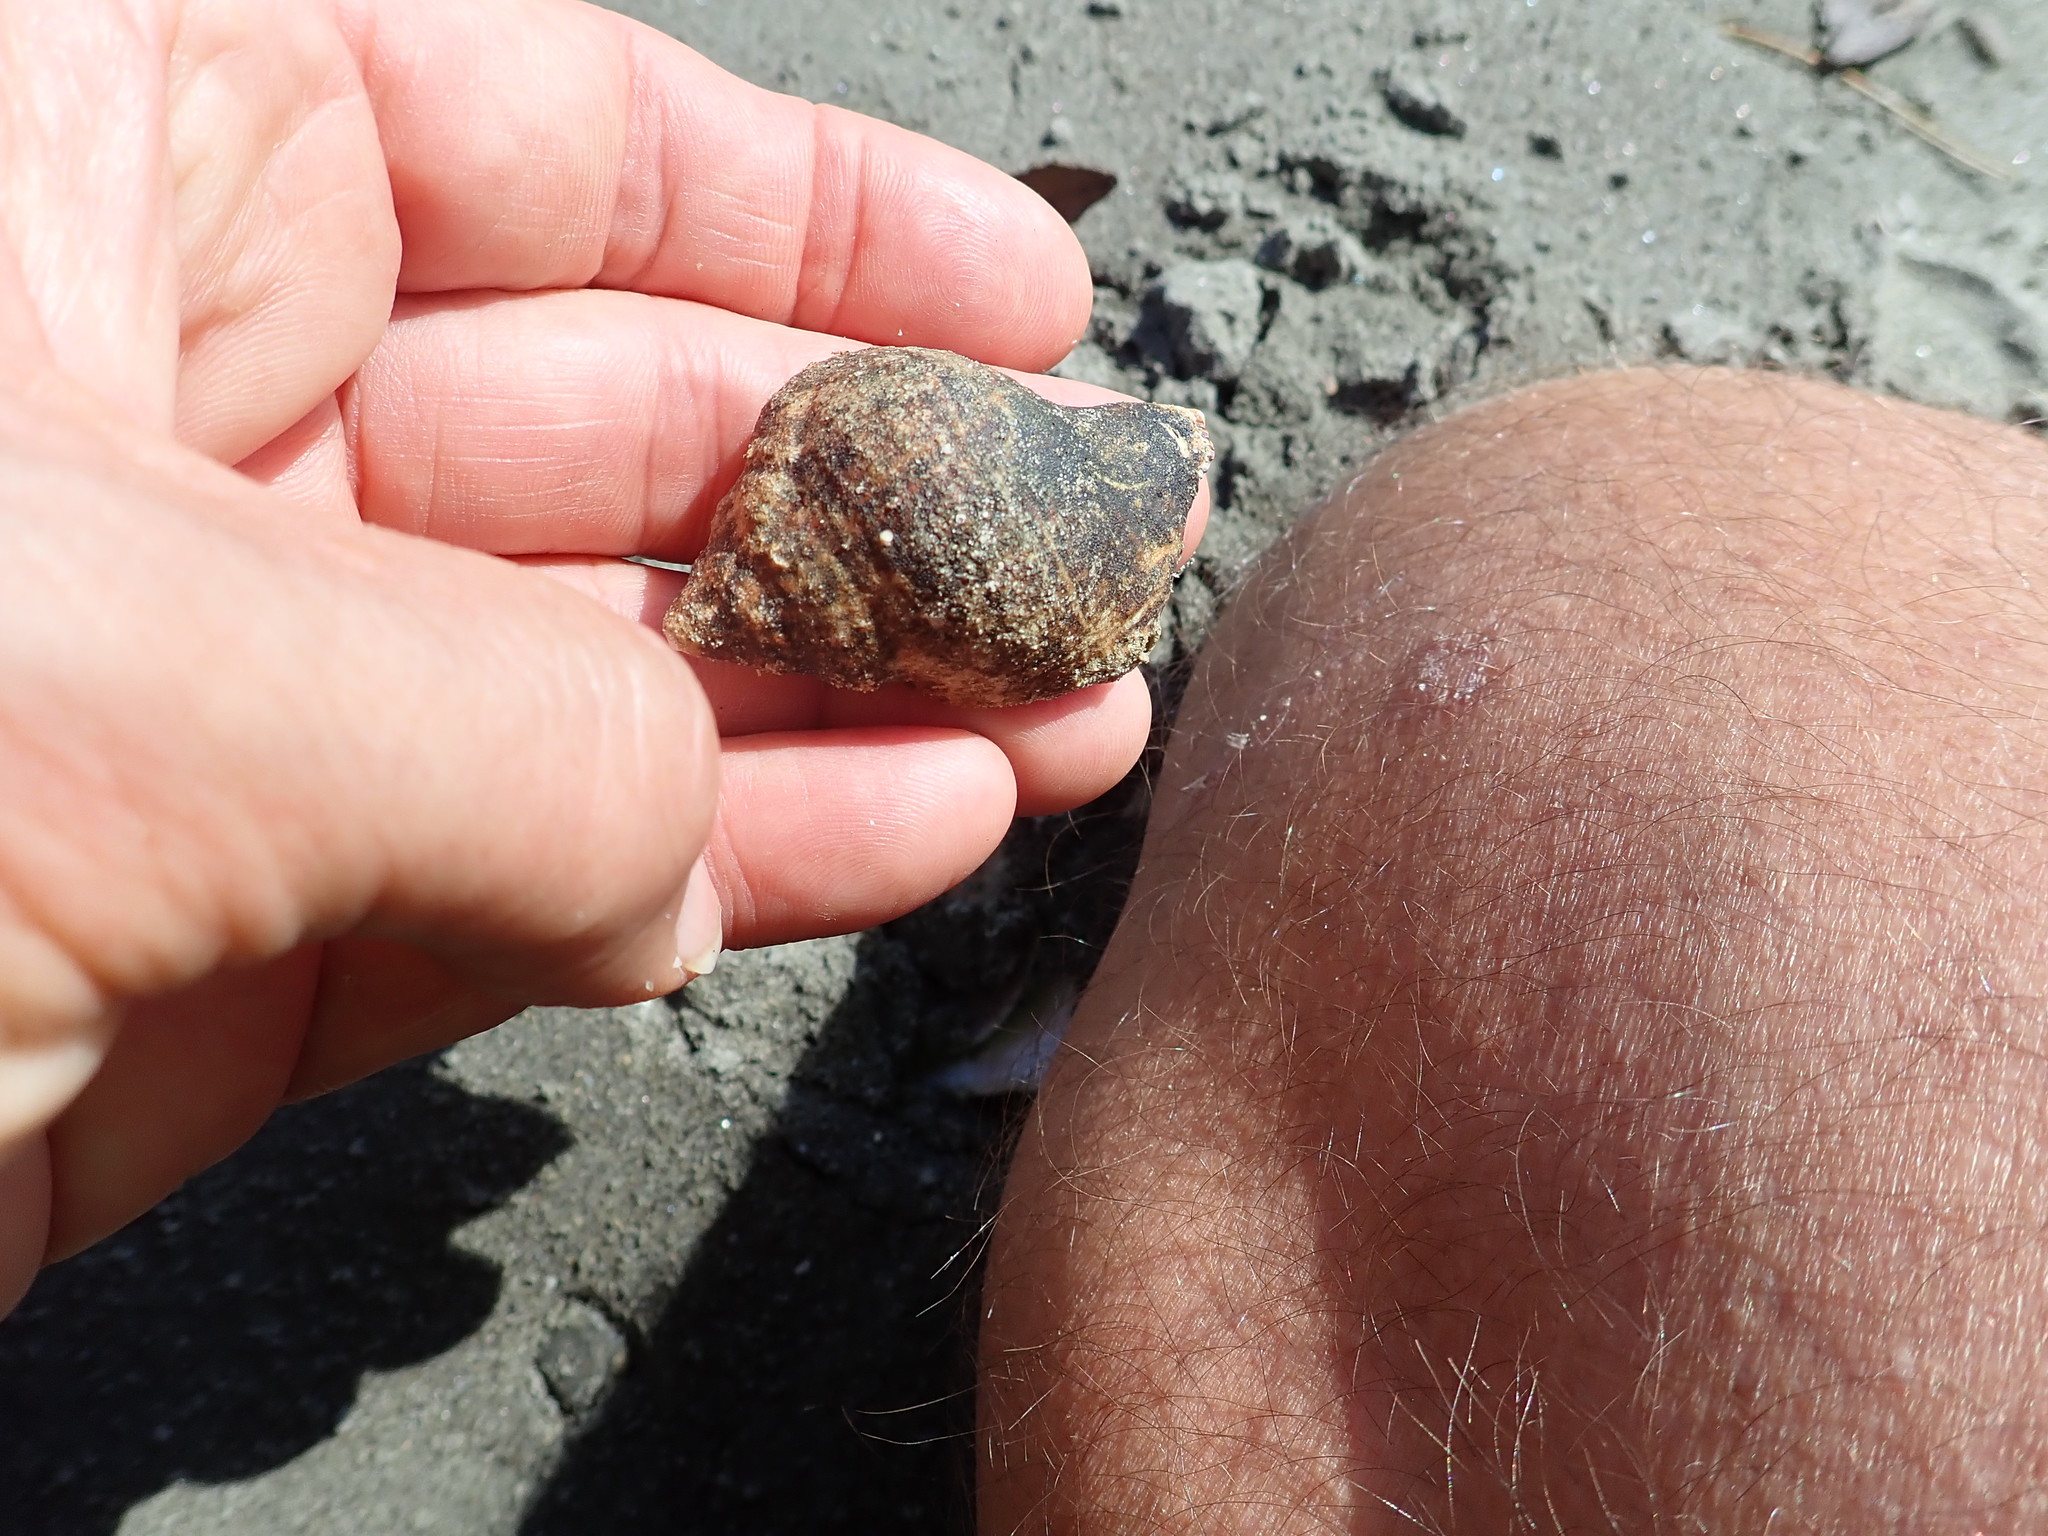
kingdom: Animalia
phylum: Mollusca
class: Gastropoda
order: Littorinimorpha
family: Cymatiidae
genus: Argobuccinum
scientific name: Argobuccinum pustulosum
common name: Pustular triton
